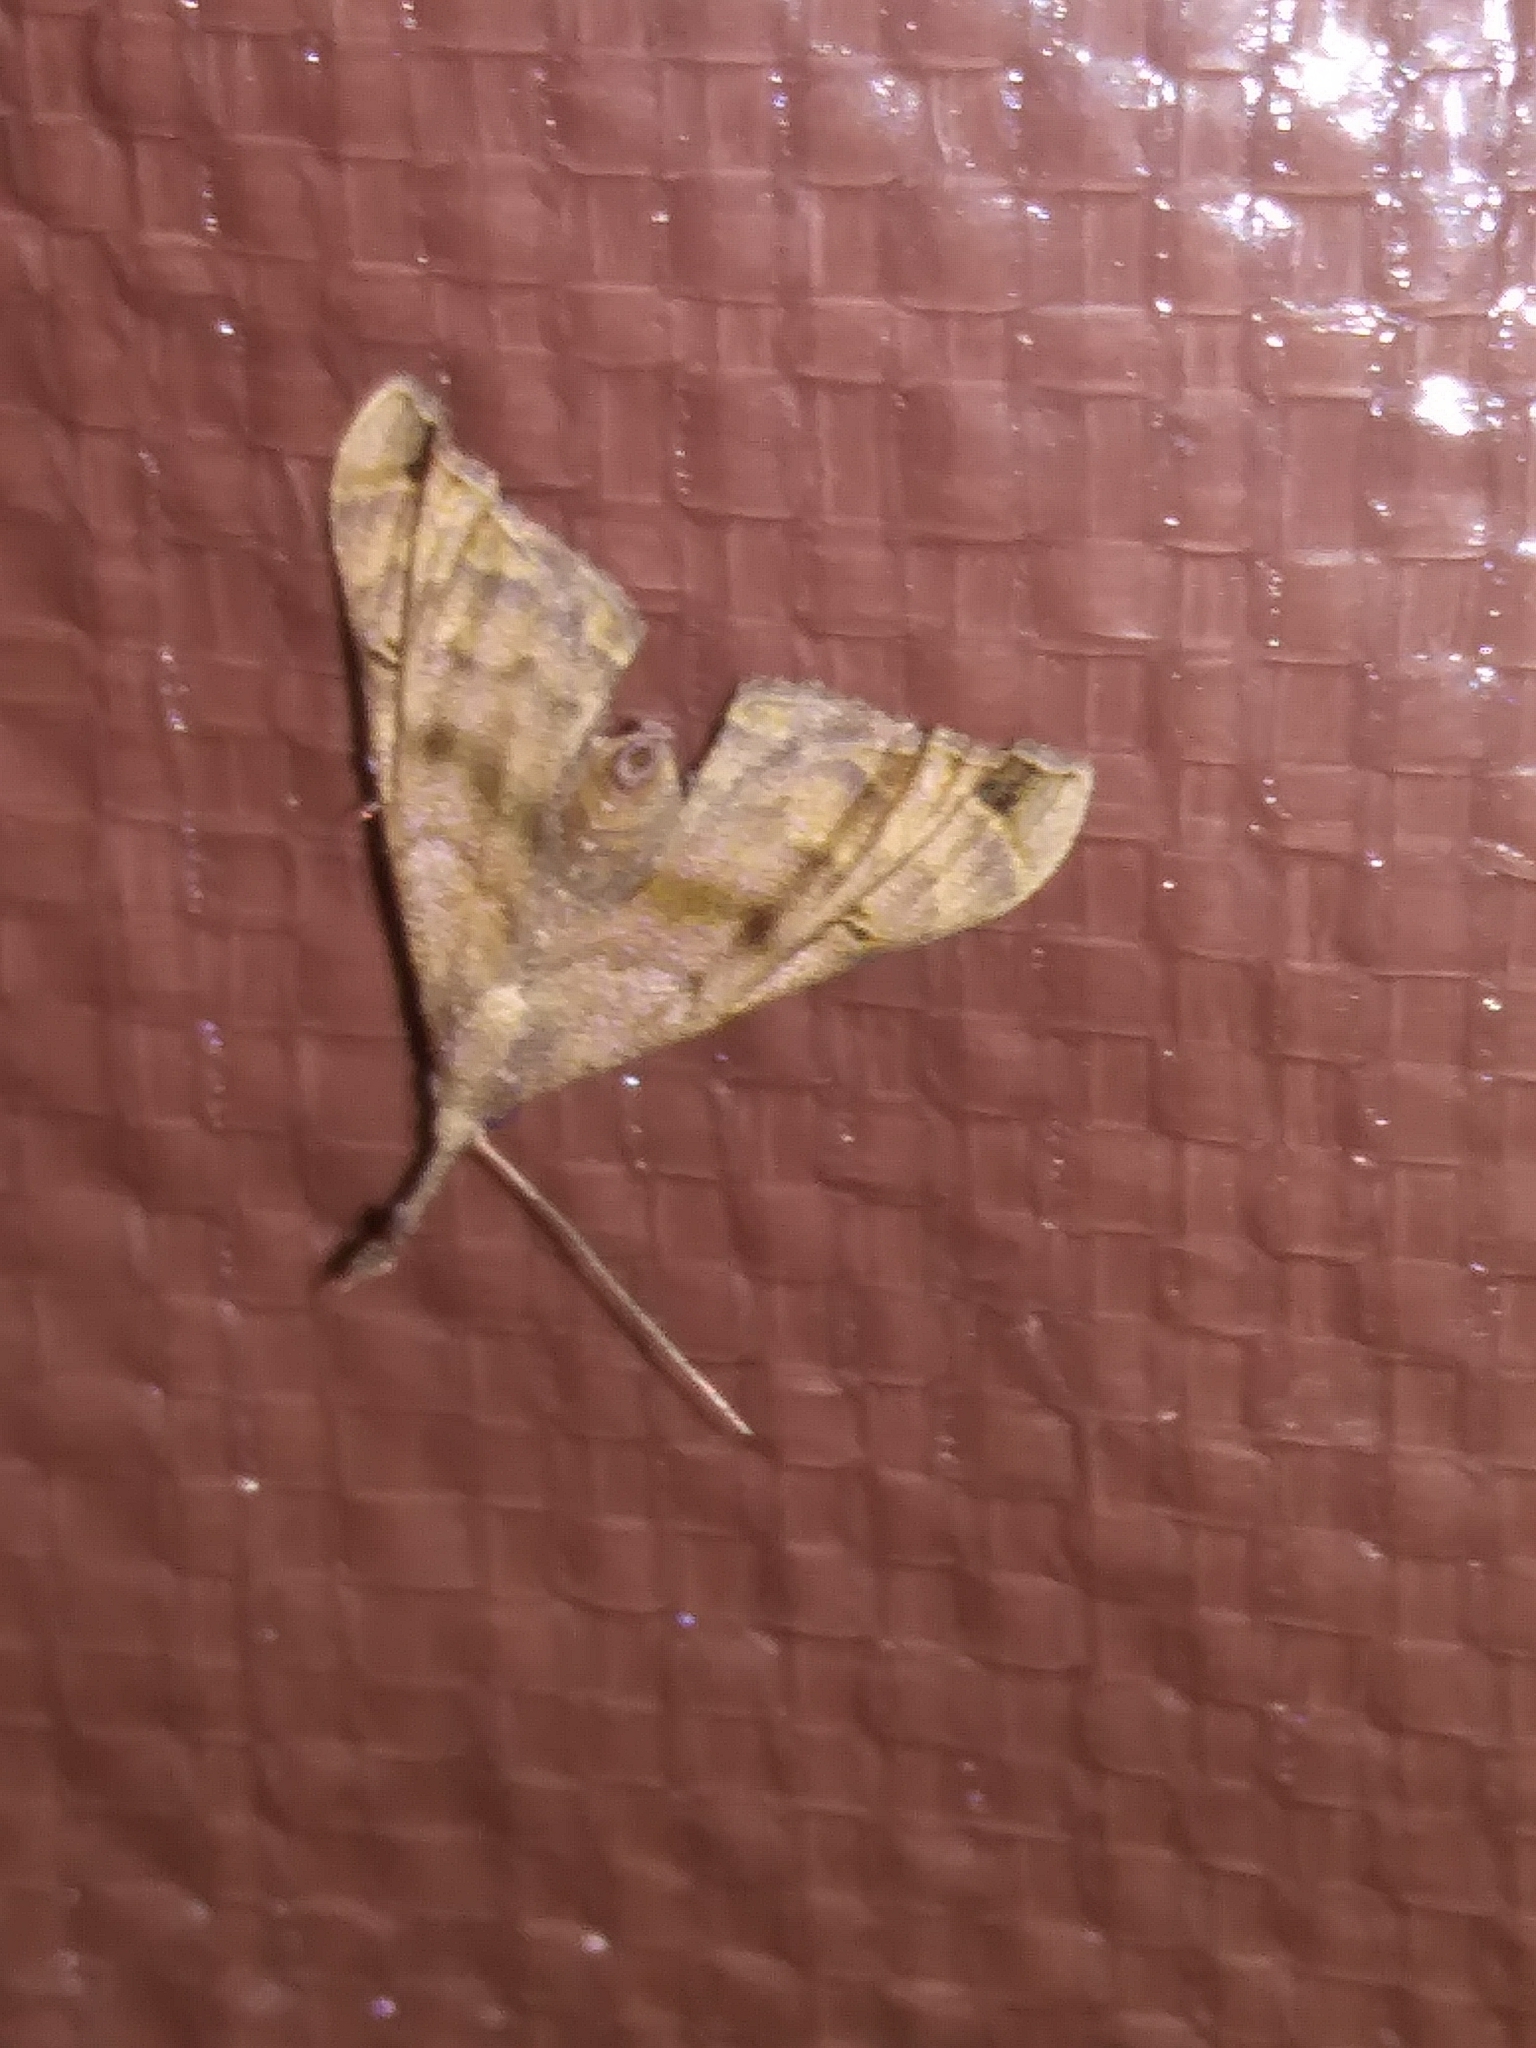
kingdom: Animalia
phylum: Arthropoda
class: Insecta
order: Lepidoptera
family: Erebidae
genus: Palthis
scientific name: Palthis asopialis
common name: Faint-spotted palthis moth
